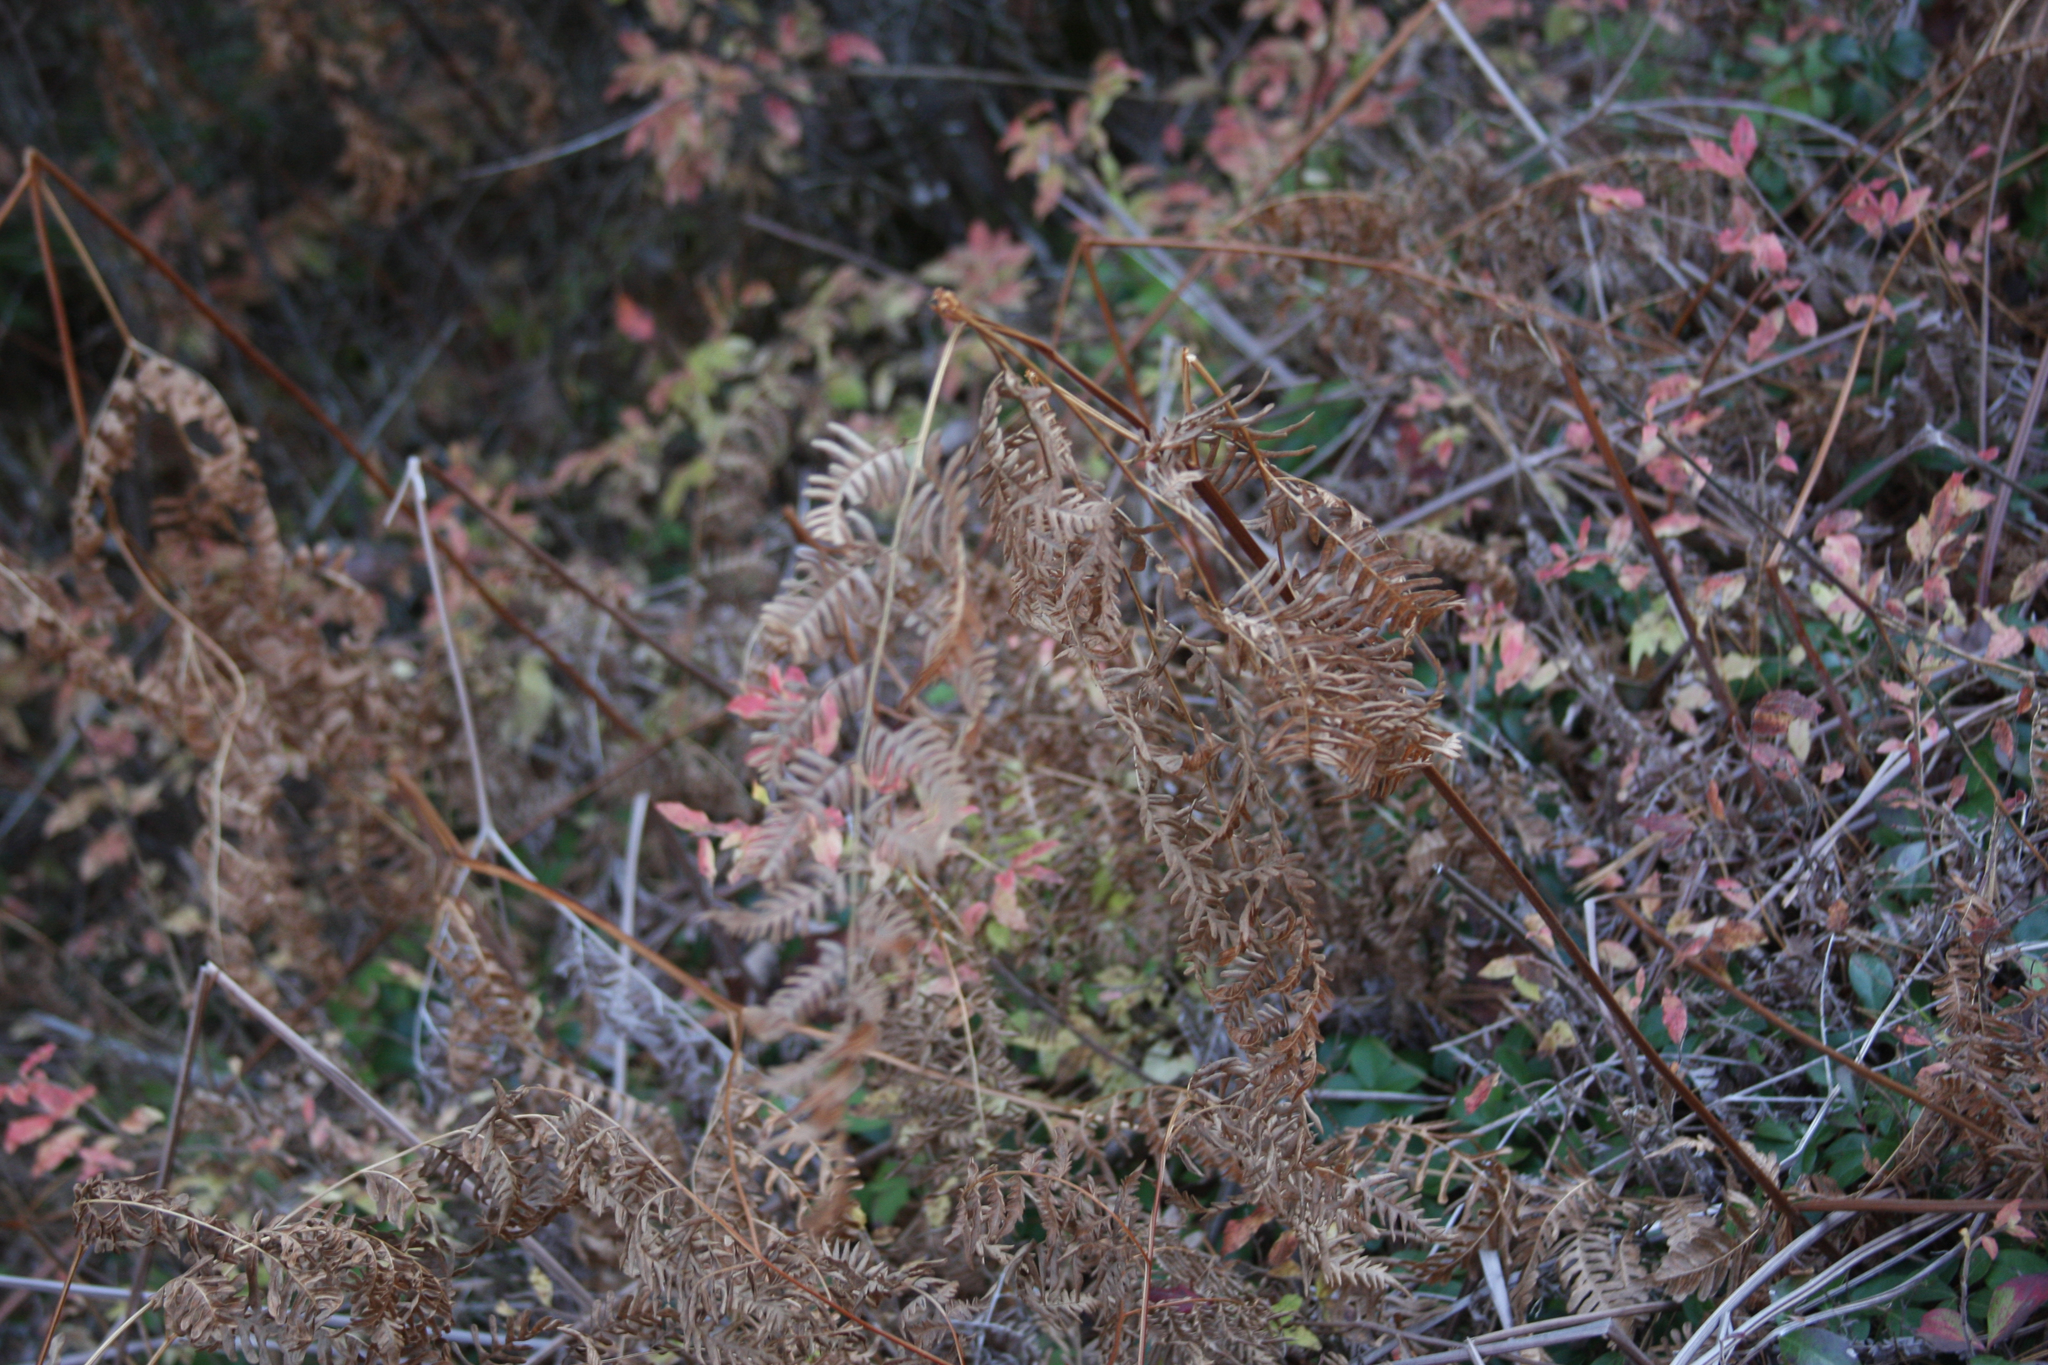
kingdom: Plantae
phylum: Tracheophyta
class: Polypodiopsida
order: Polypodiales
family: Dennstaedtiaceae
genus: Pteridium
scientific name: Pteridium aquilinum
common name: Bracken
